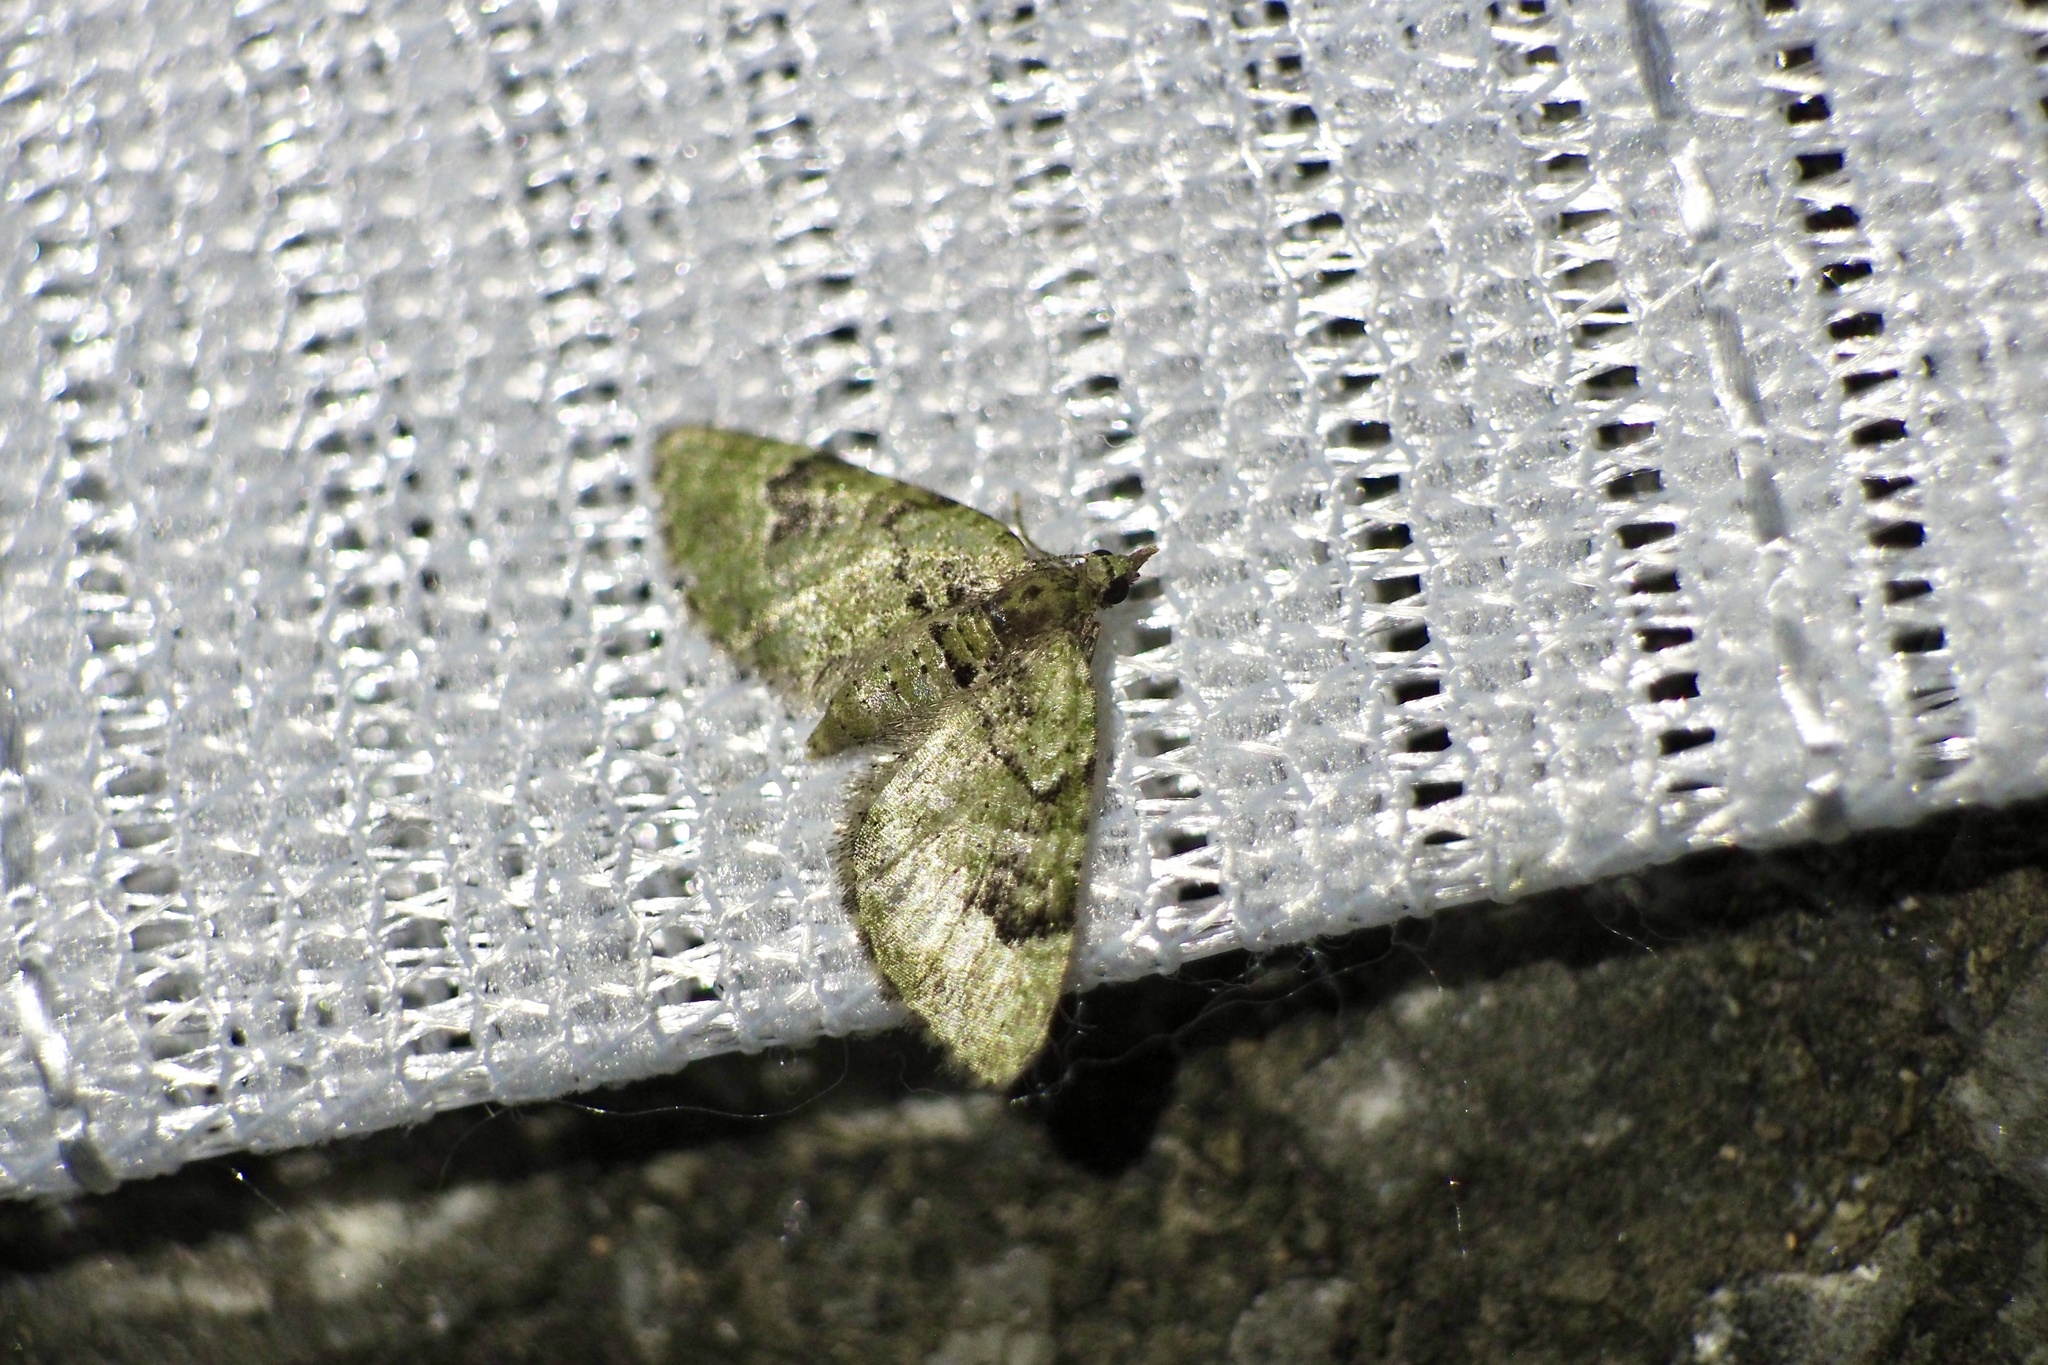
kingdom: Animalia
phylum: Arthropoda
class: Insecta
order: Lepidoptera
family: Geometridae
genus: Chloroclystis
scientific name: Chloroclystis v-ata
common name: V-pug
